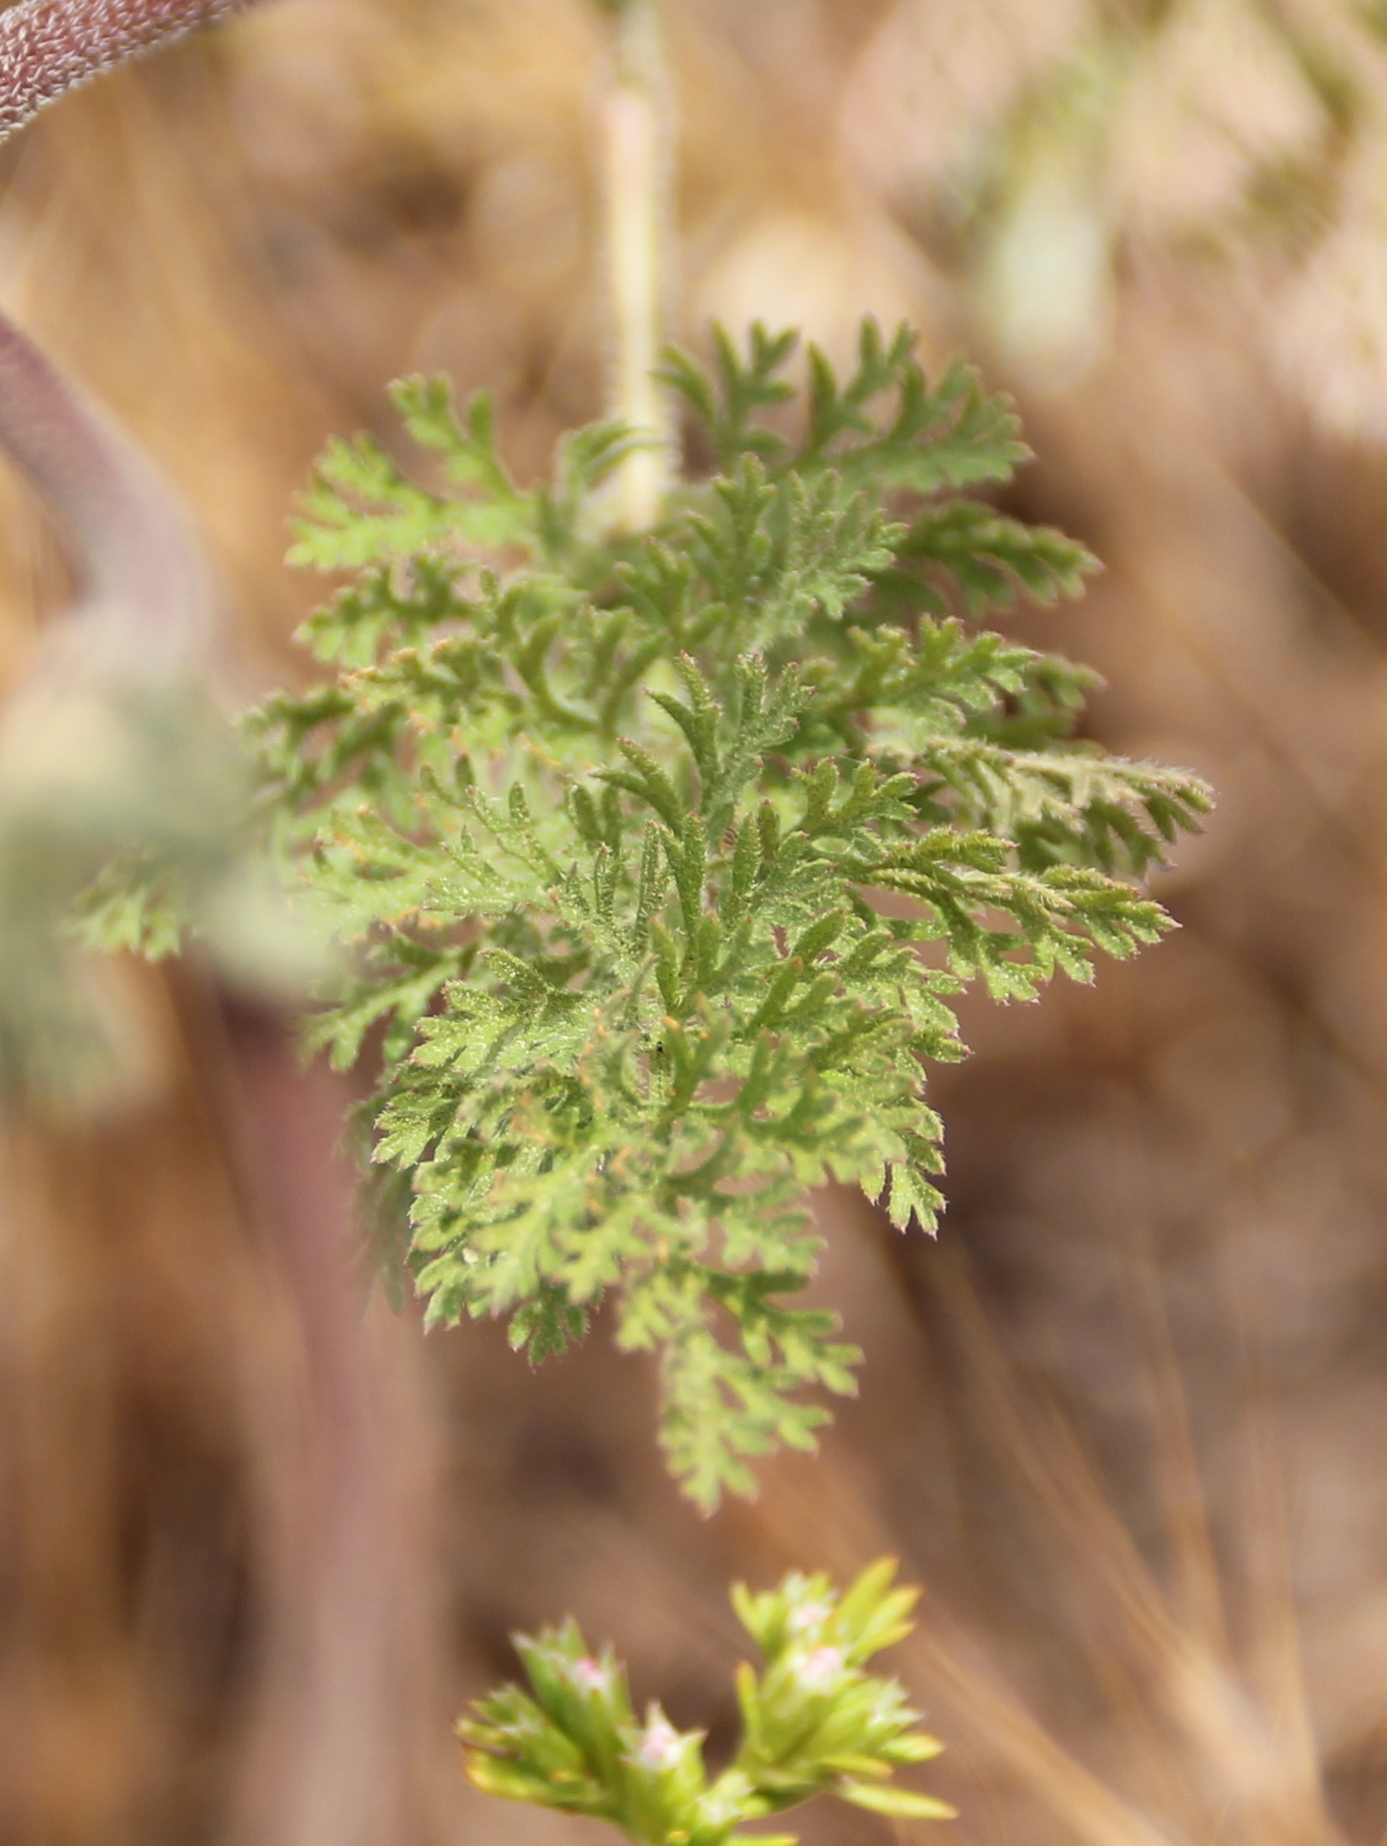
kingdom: Plantae
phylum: Tracheophyta
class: Magnoliopsida
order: Apiales
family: Apiaceae
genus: Daucus
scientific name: Daucus pusillus
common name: Southwest wild carrot
